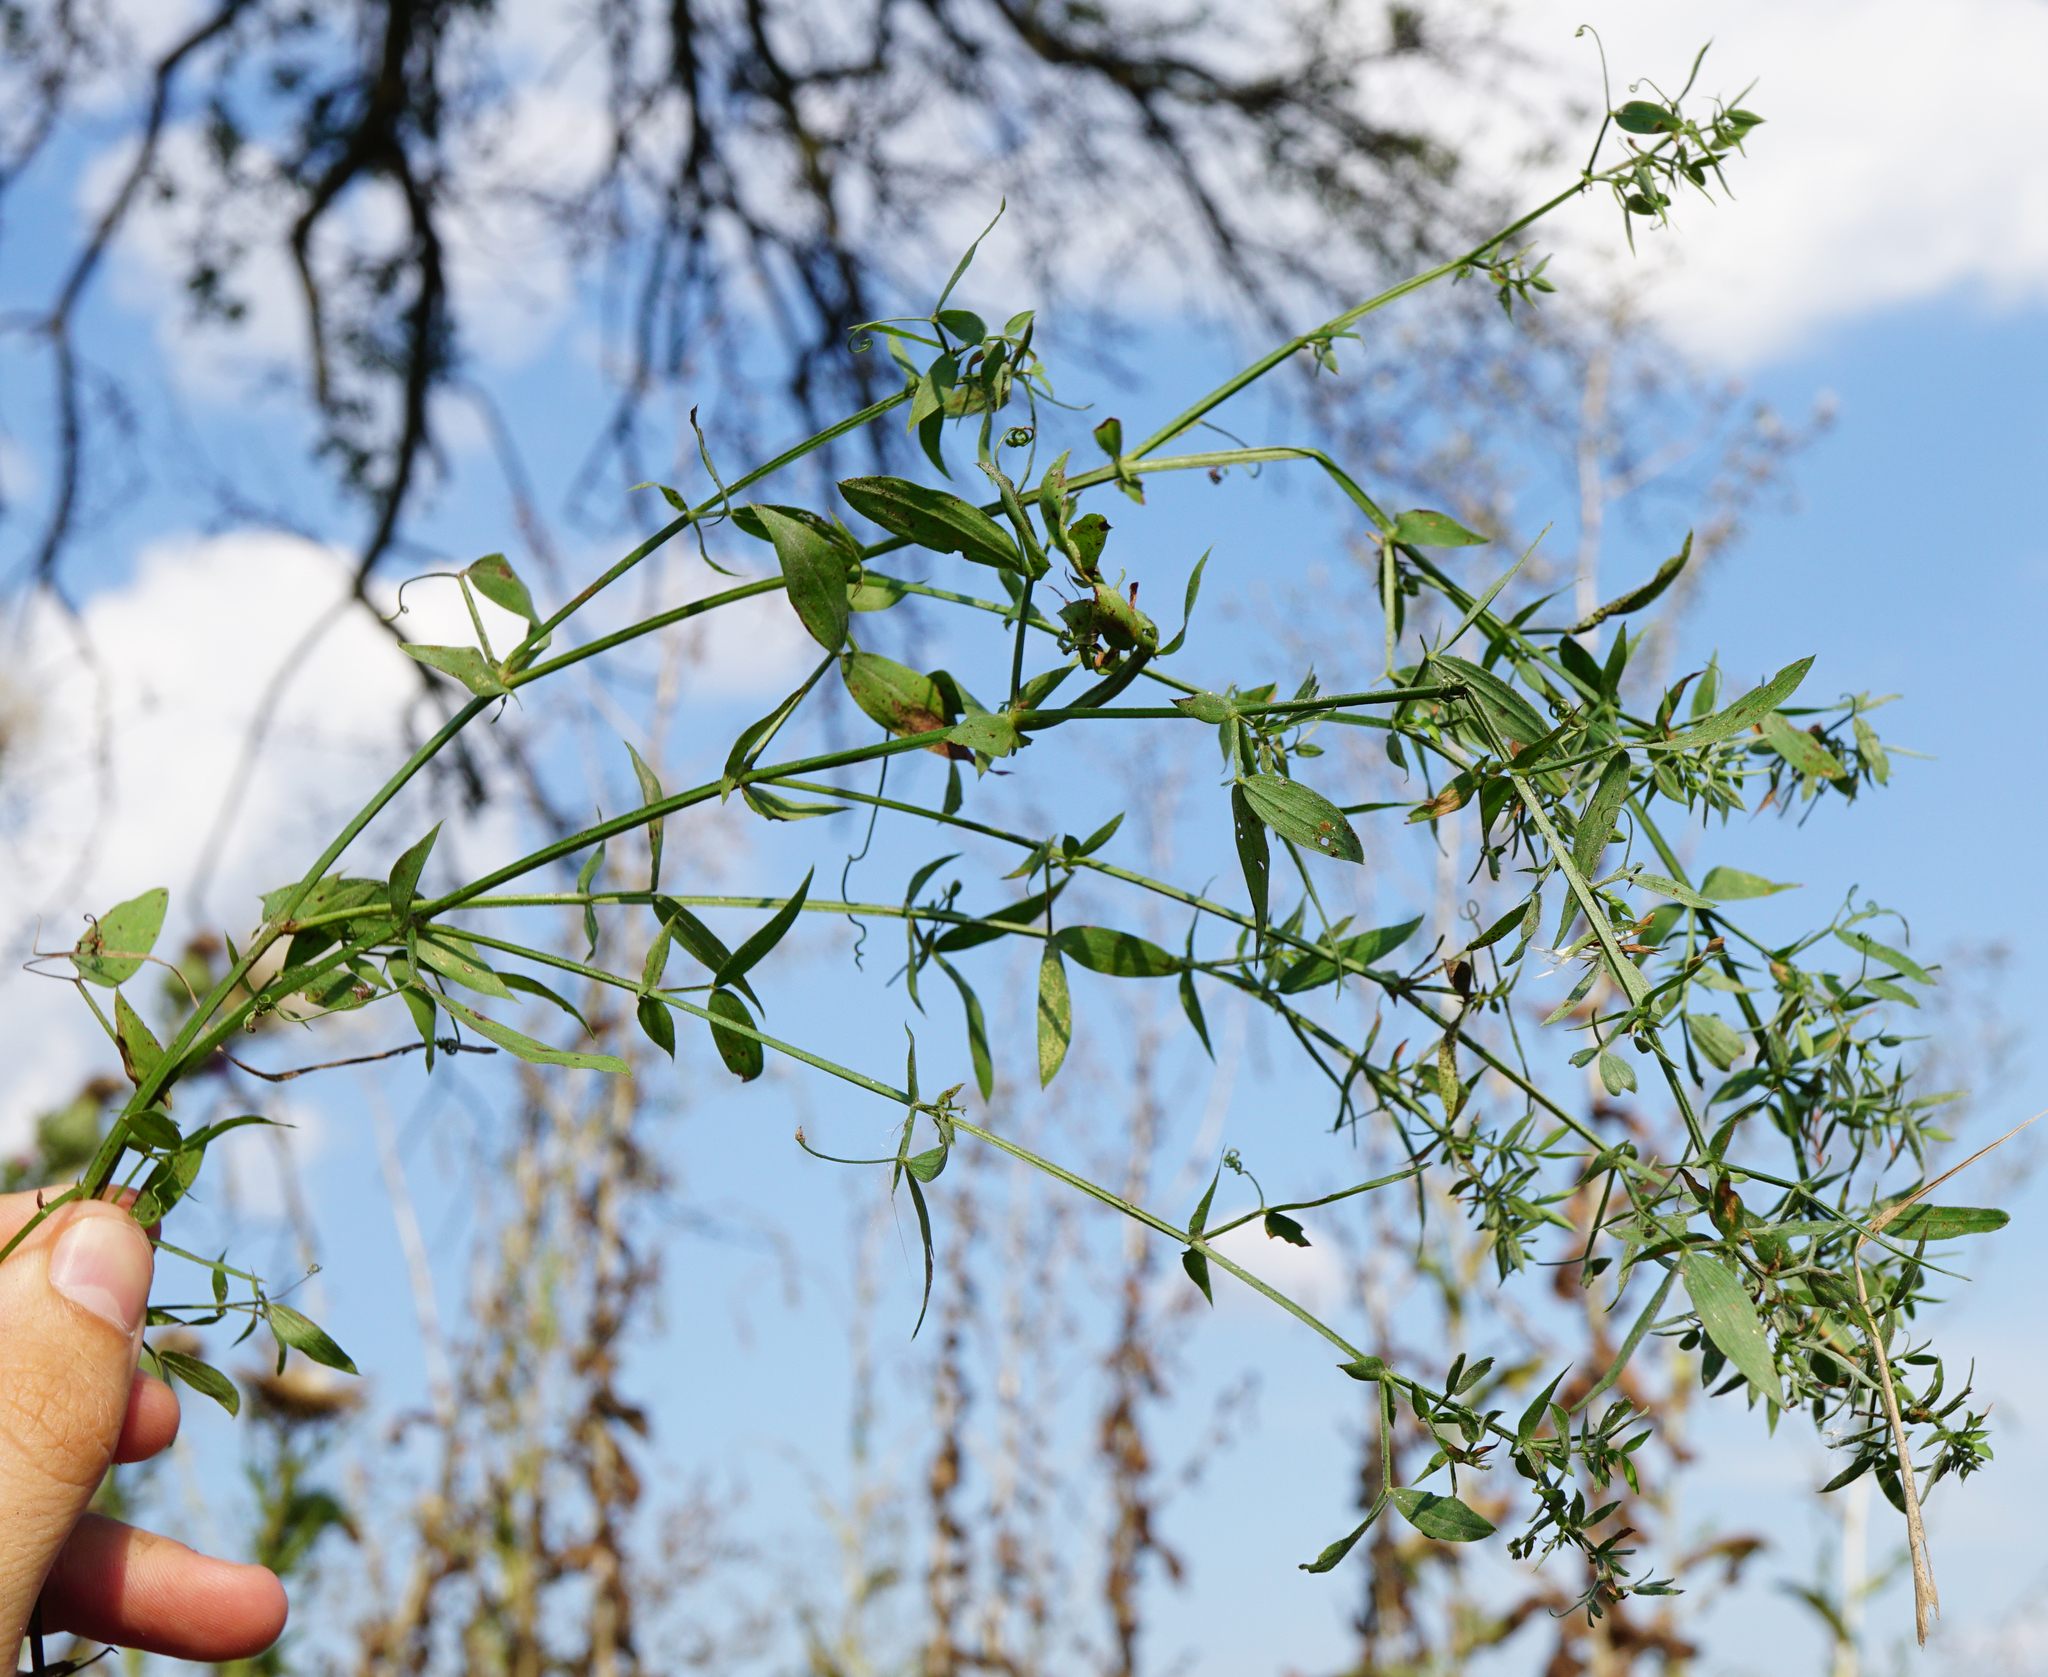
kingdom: Plantae
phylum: Tracheophyta
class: Magnoliopsida
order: Fabales
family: Fabaceae
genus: Lathyrus
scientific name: Lathyrus pratensis
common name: Meadow vetchling
